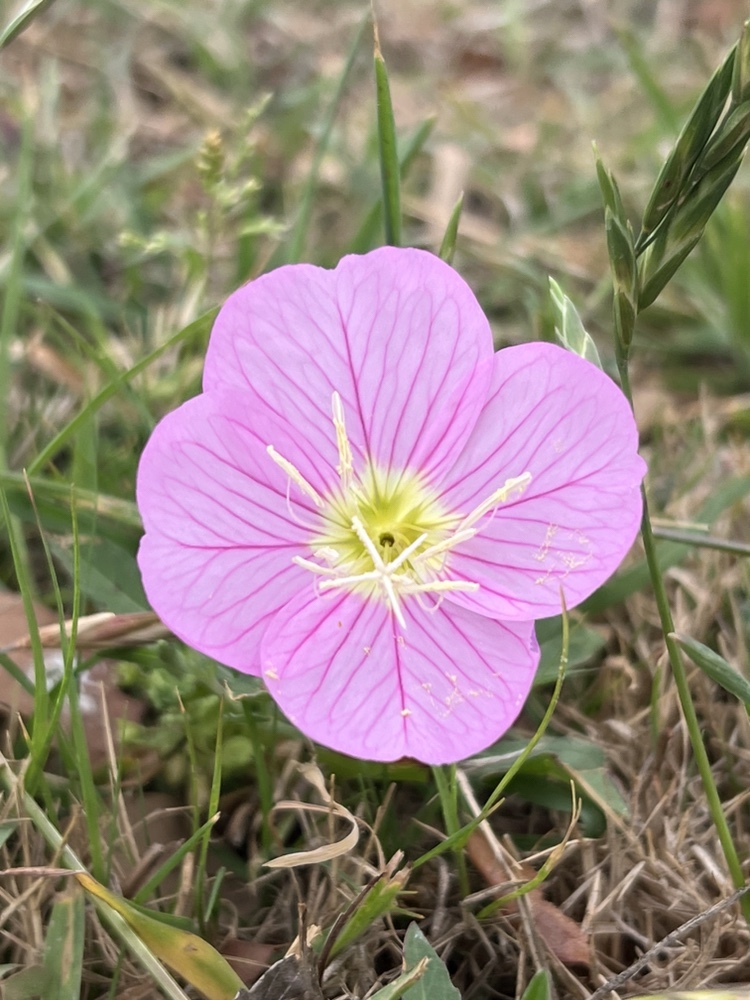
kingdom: Plantae
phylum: Tracheophyta
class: Magnoliopsida
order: Myrtales
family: Onagraceae
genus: Oenothera
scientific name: Oenothera speciosa
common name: White evening-primrose
